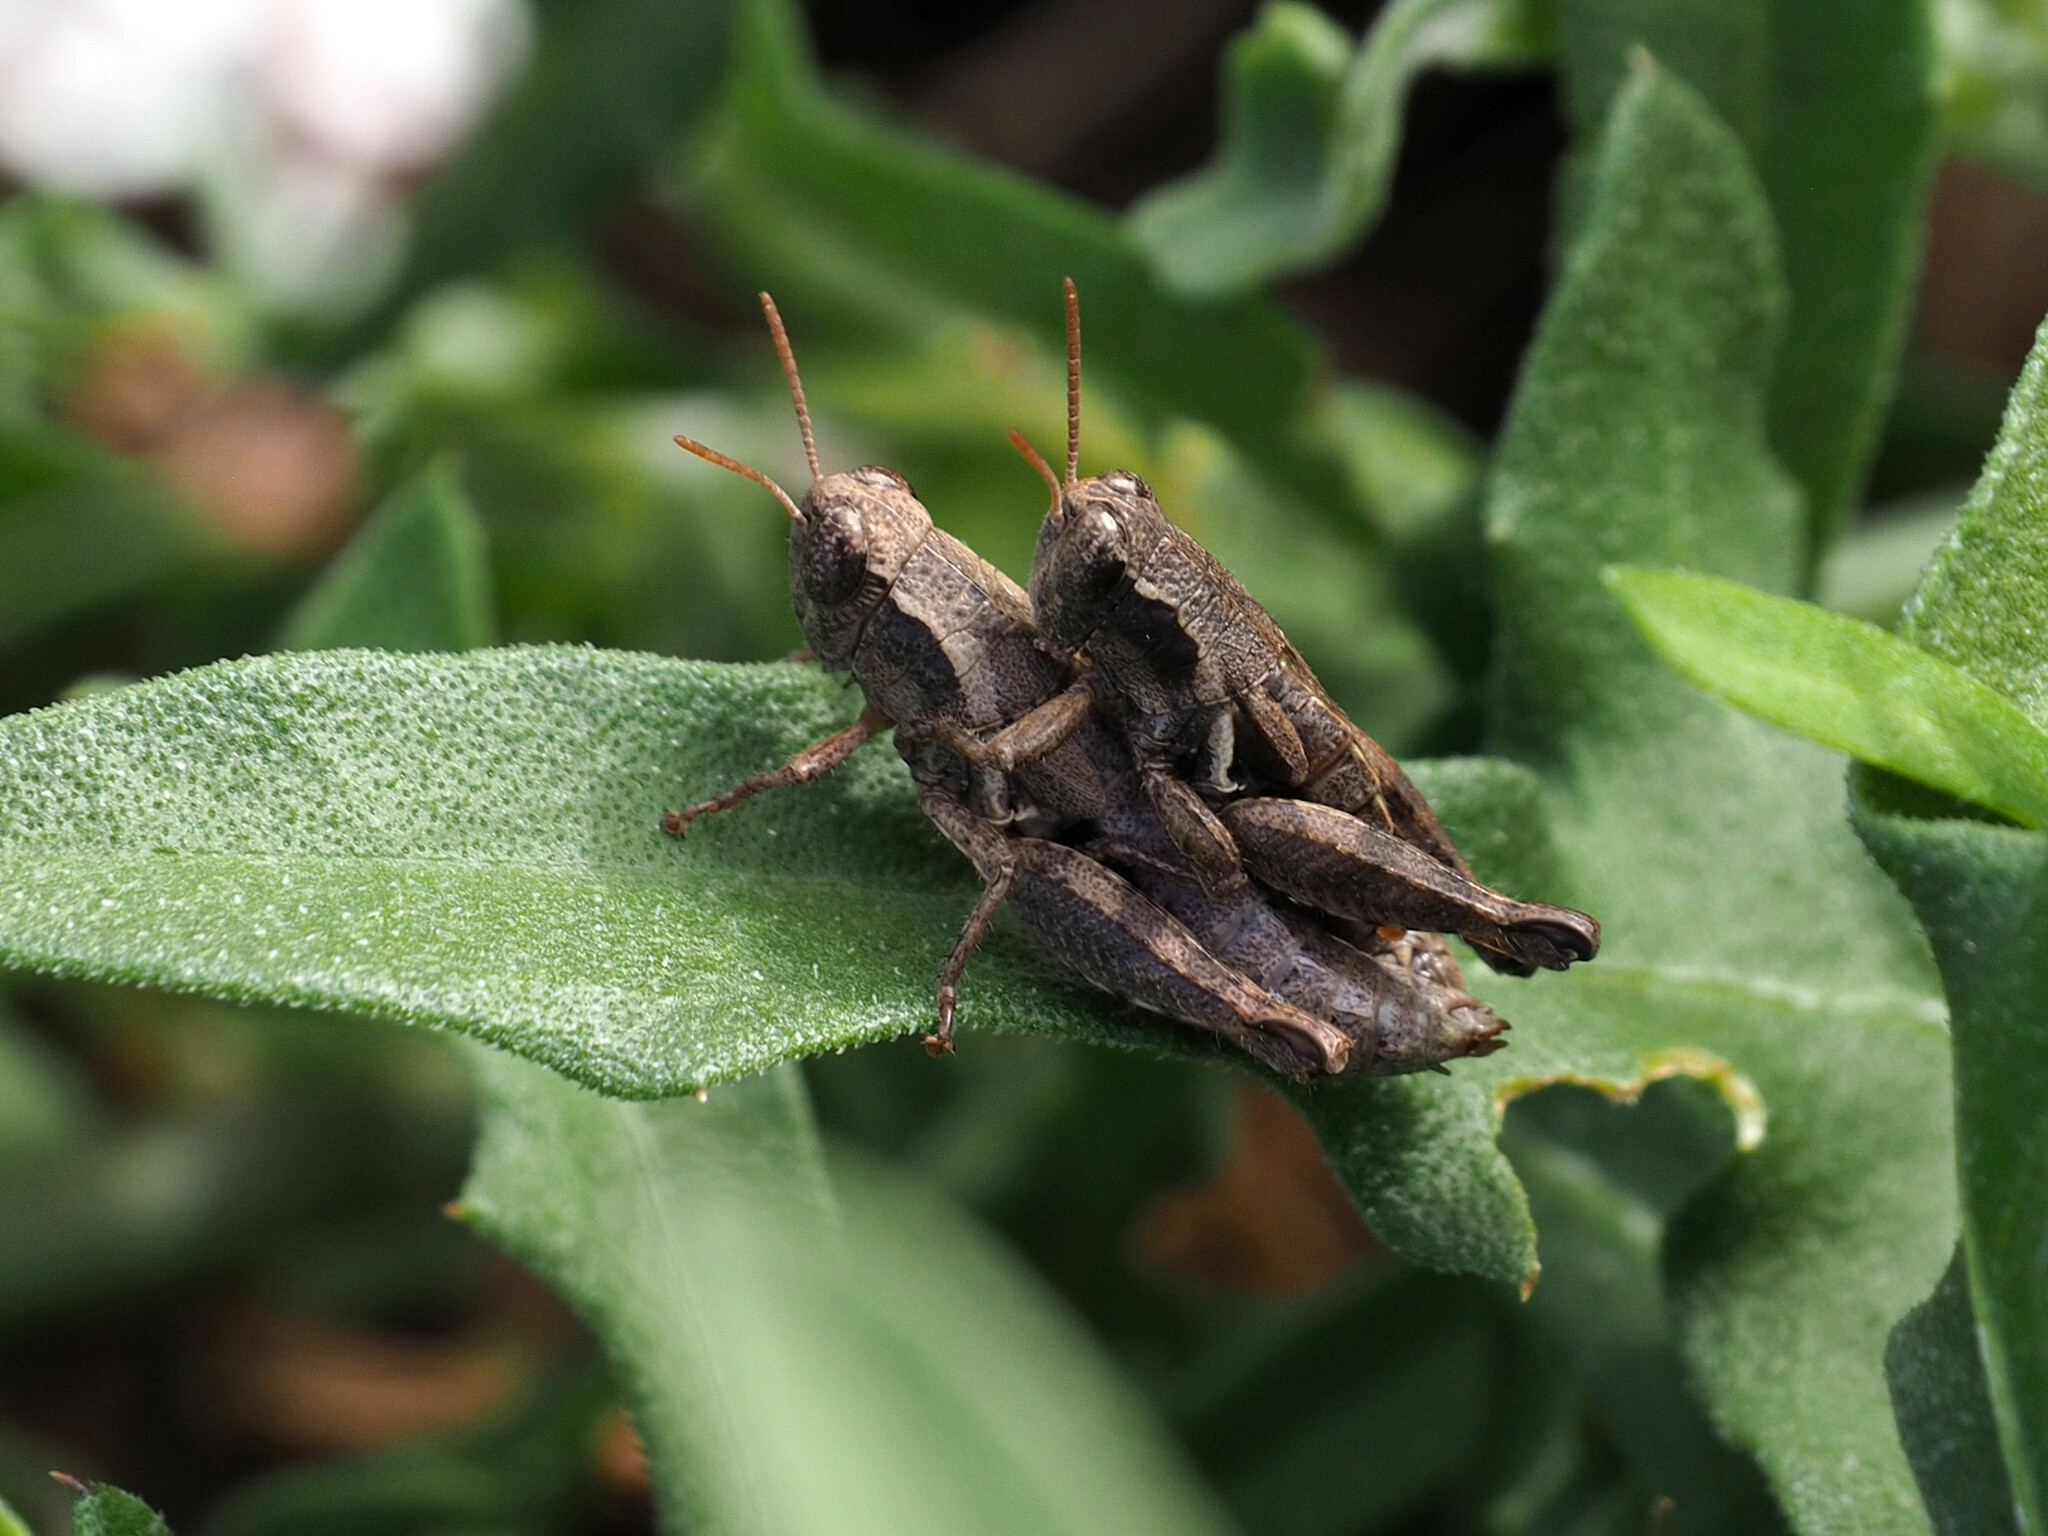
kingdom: Animalia
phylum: Arthropoda
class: Insecta
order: Orthoptera
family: Acrididae
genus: Pezotettix
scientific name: Pezotettix giornae
